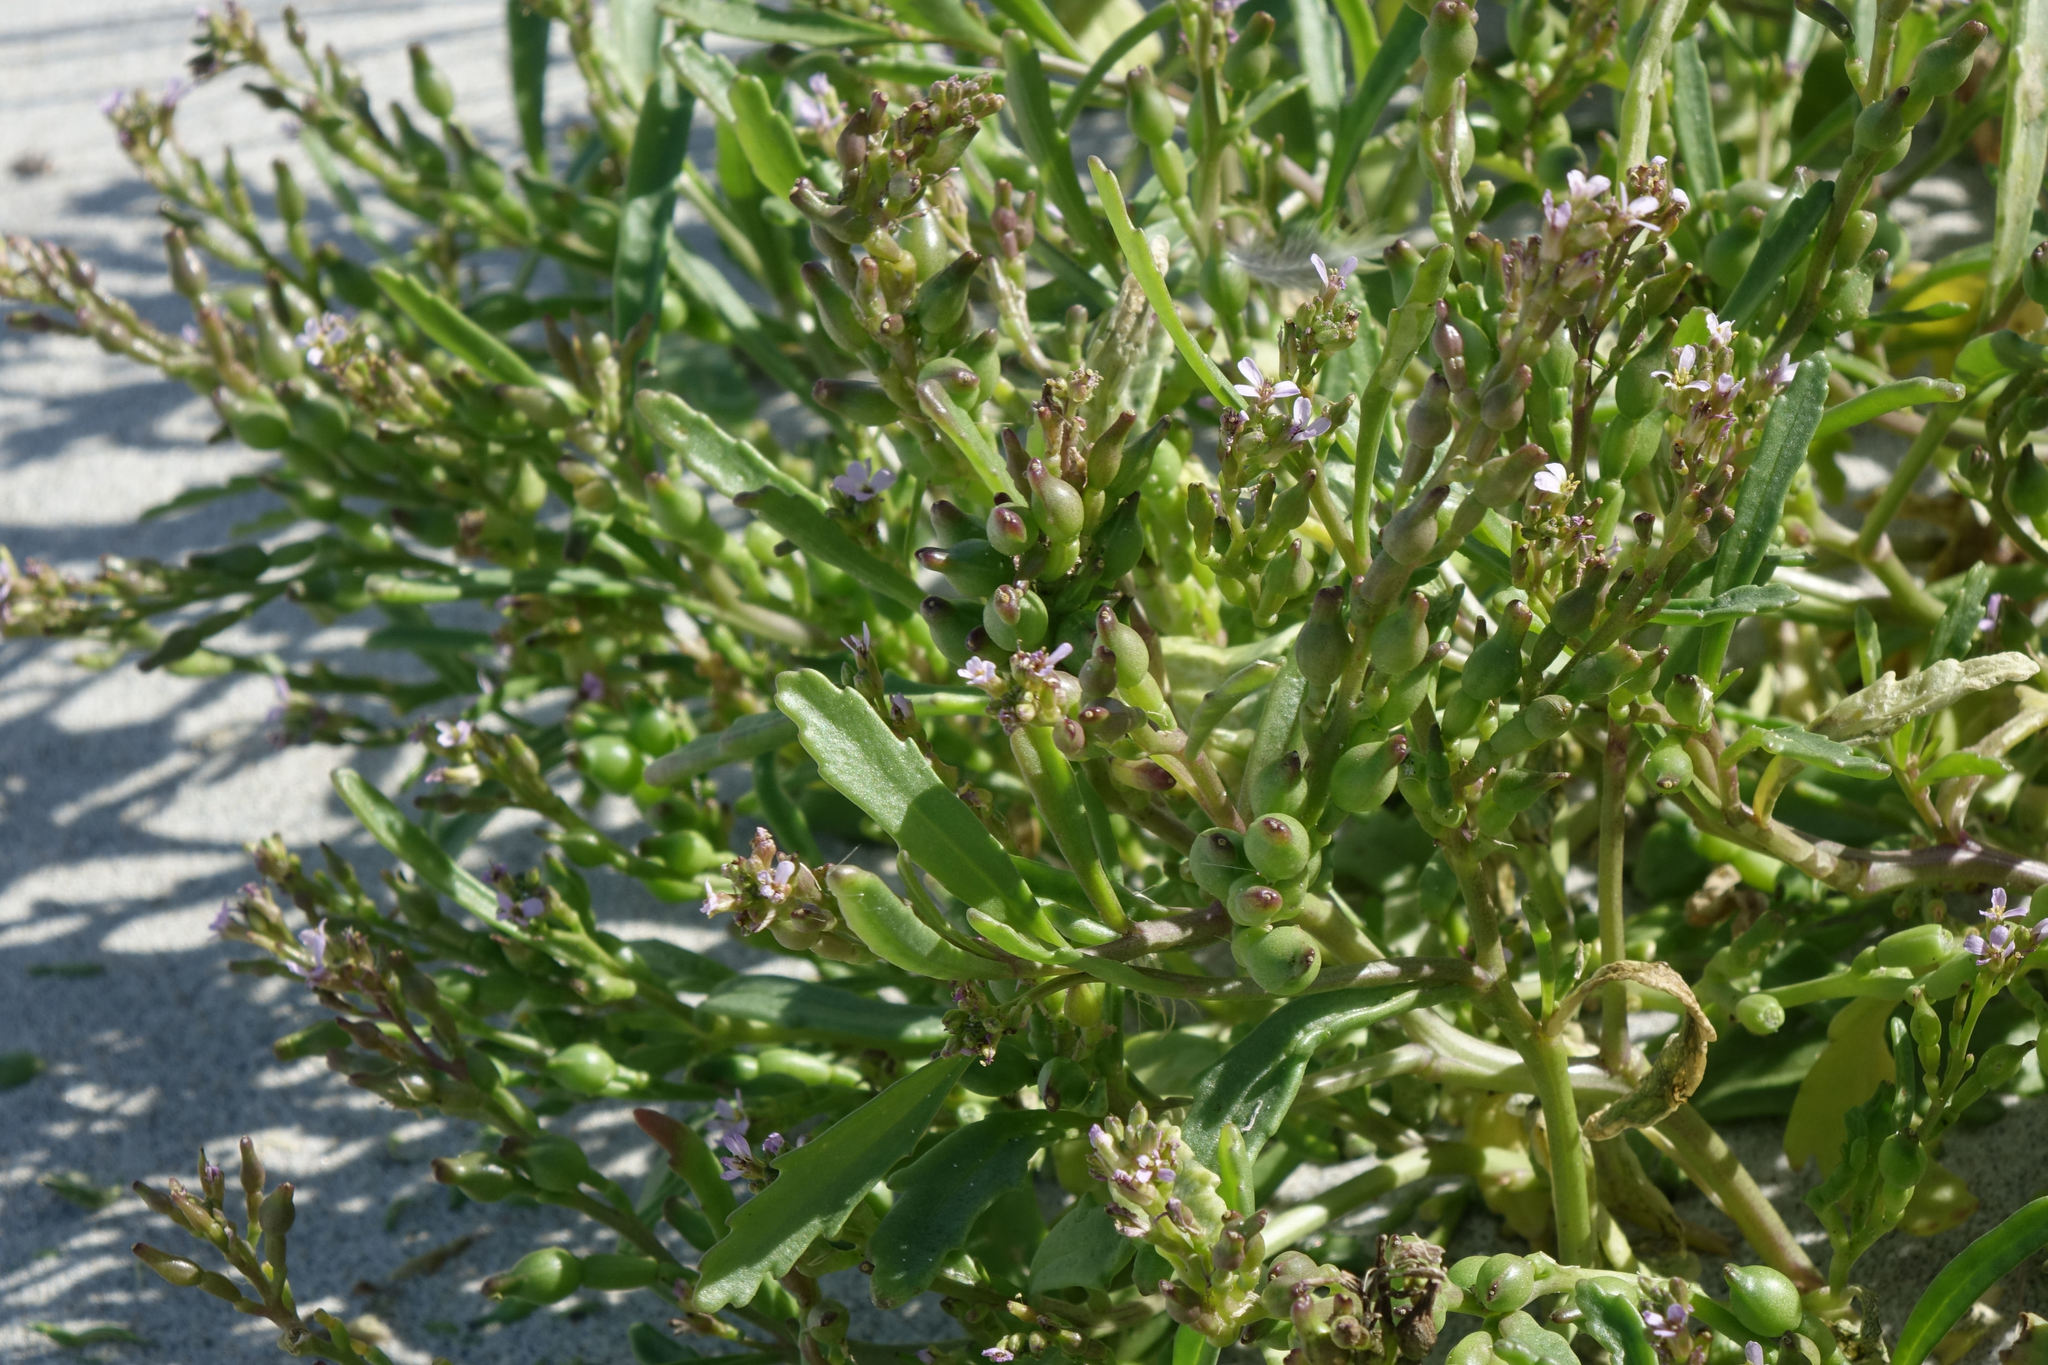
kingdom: Plantae
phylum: Tracheophyta
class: Magnoliopsida
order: Brassicales
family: Brassicaceae
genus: Cakile
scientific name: Cakile edentula
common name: American sea rocket
